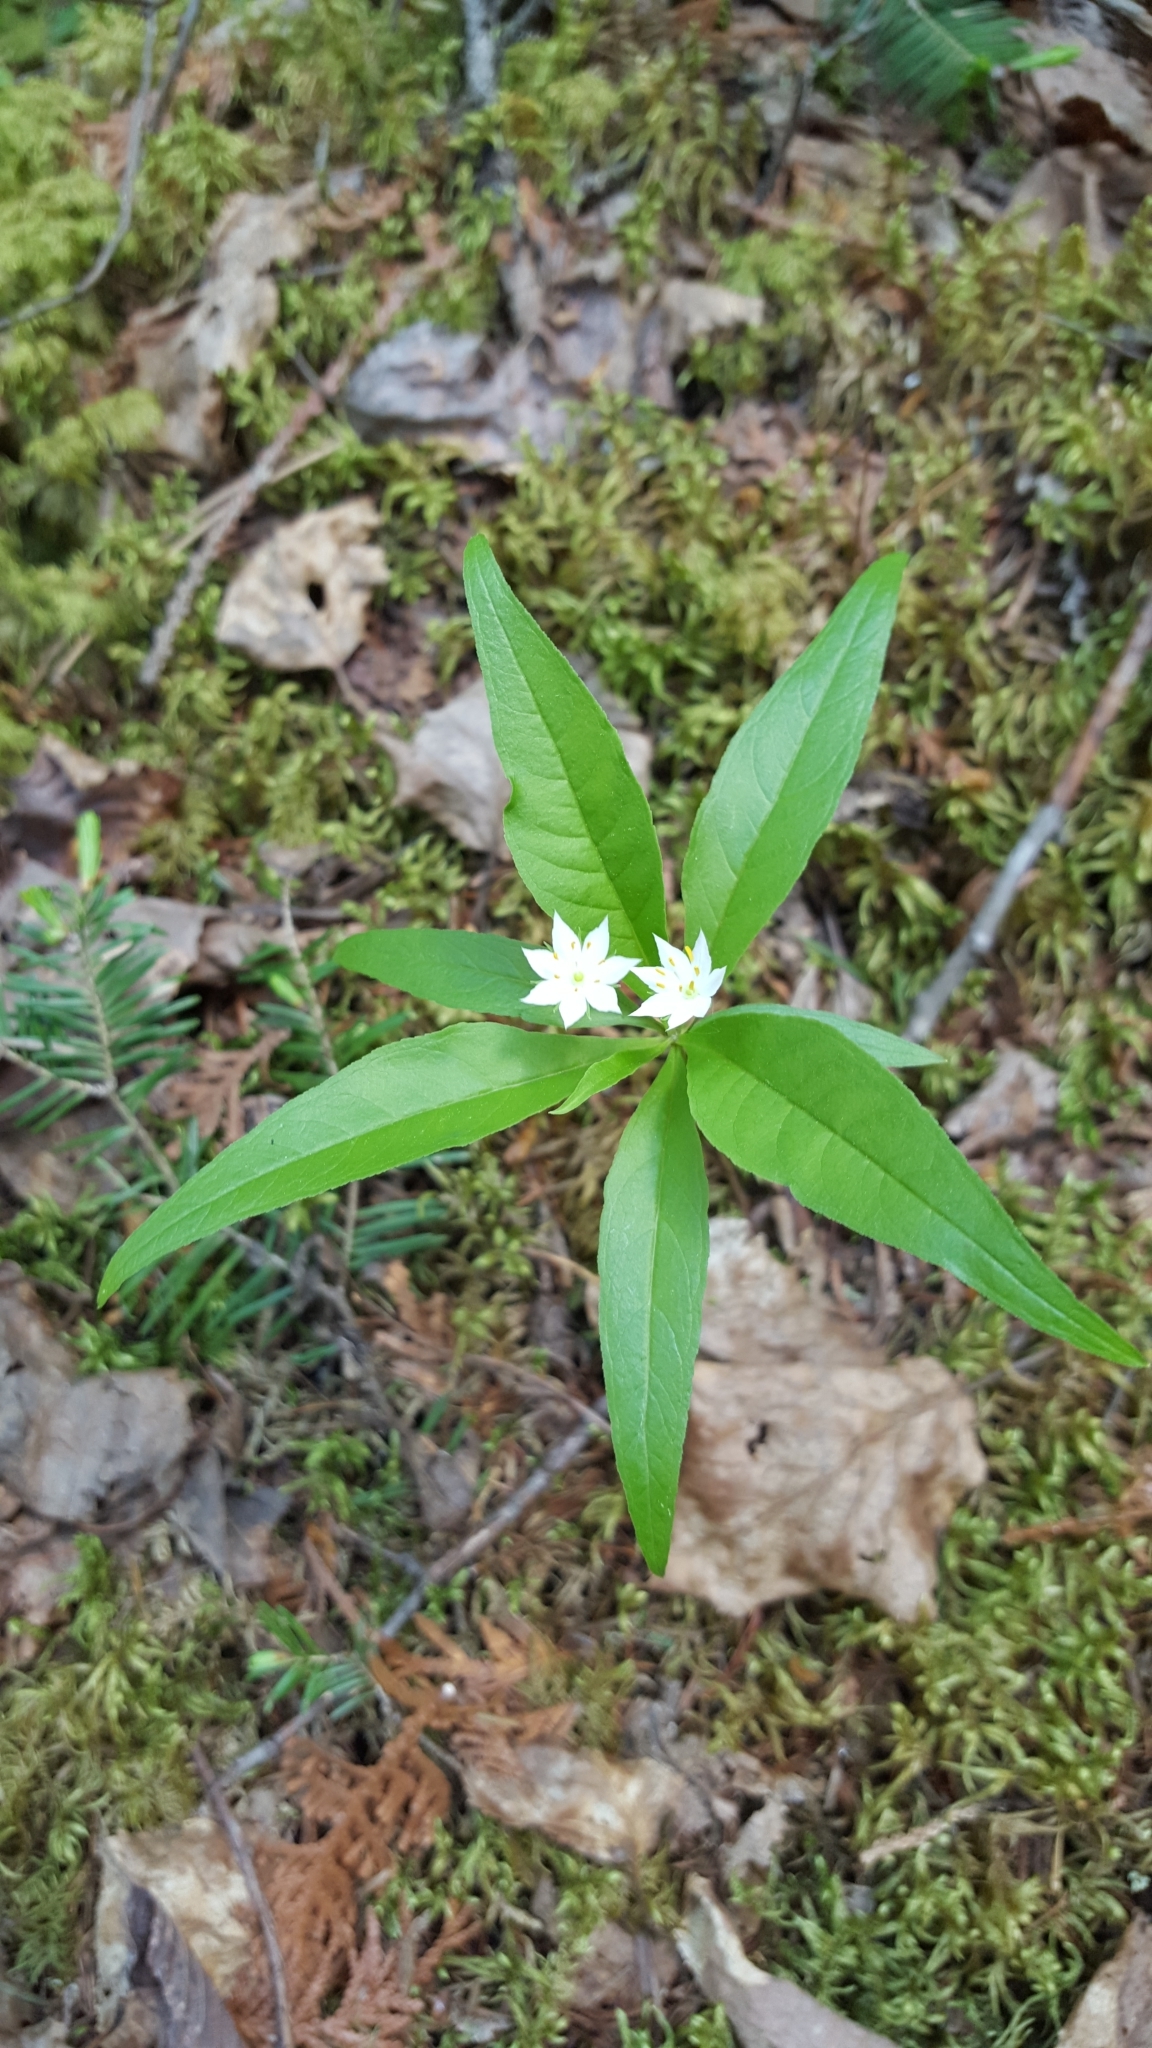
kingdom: Plantae
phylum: Tracheophyta
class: Magnoliopsida
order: Ericales
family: Primulaceae
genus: Lysimachia
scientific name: Lysimachia borealis
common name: American starflower
